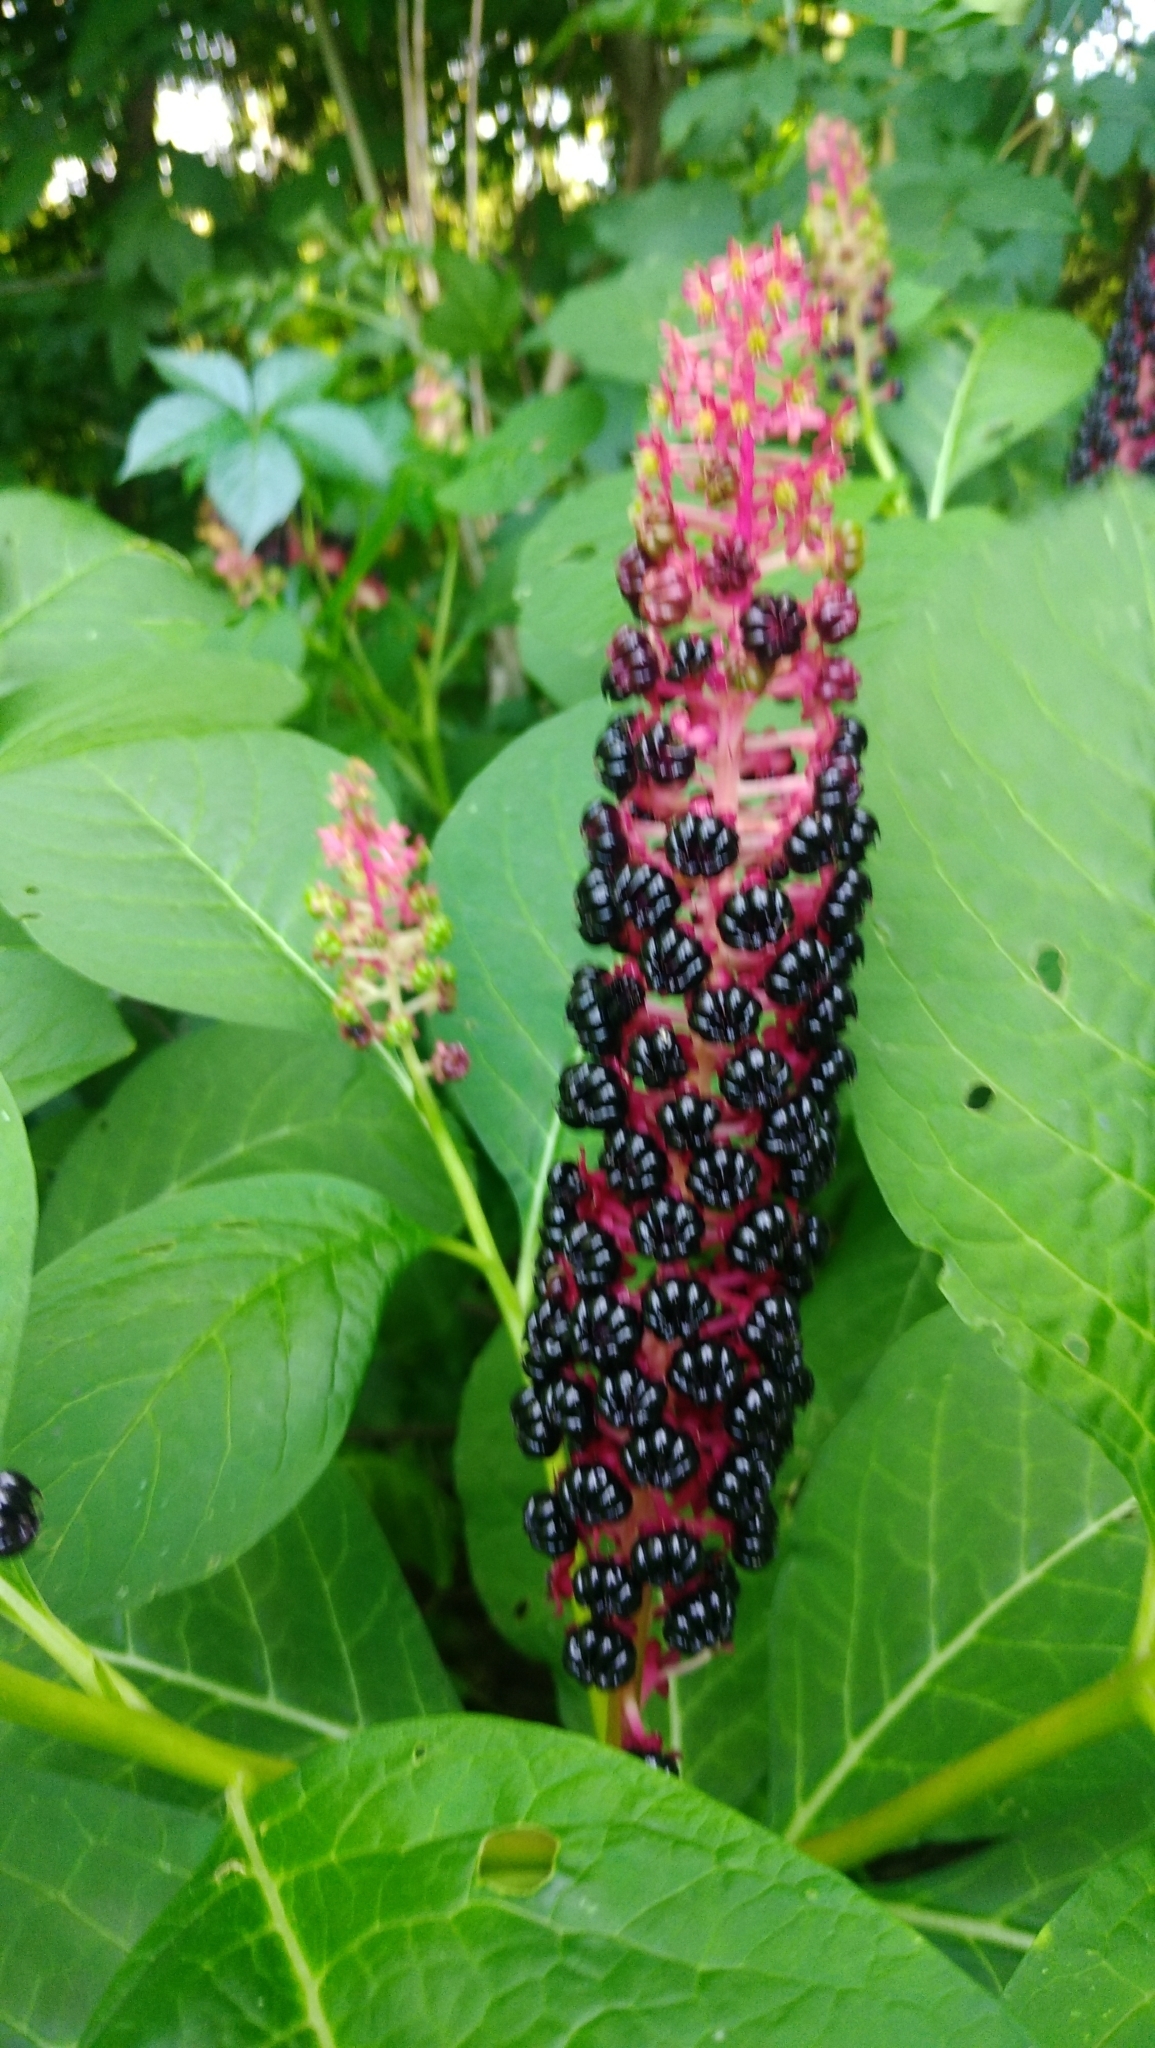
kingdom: Plantae
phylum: Tracheophyta
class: Magnoliopsida
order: Caryophyllales
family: Phytolaccaceae
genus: Phytolacca
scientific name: Phytolacca acinosa
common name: Indian pokeweed
